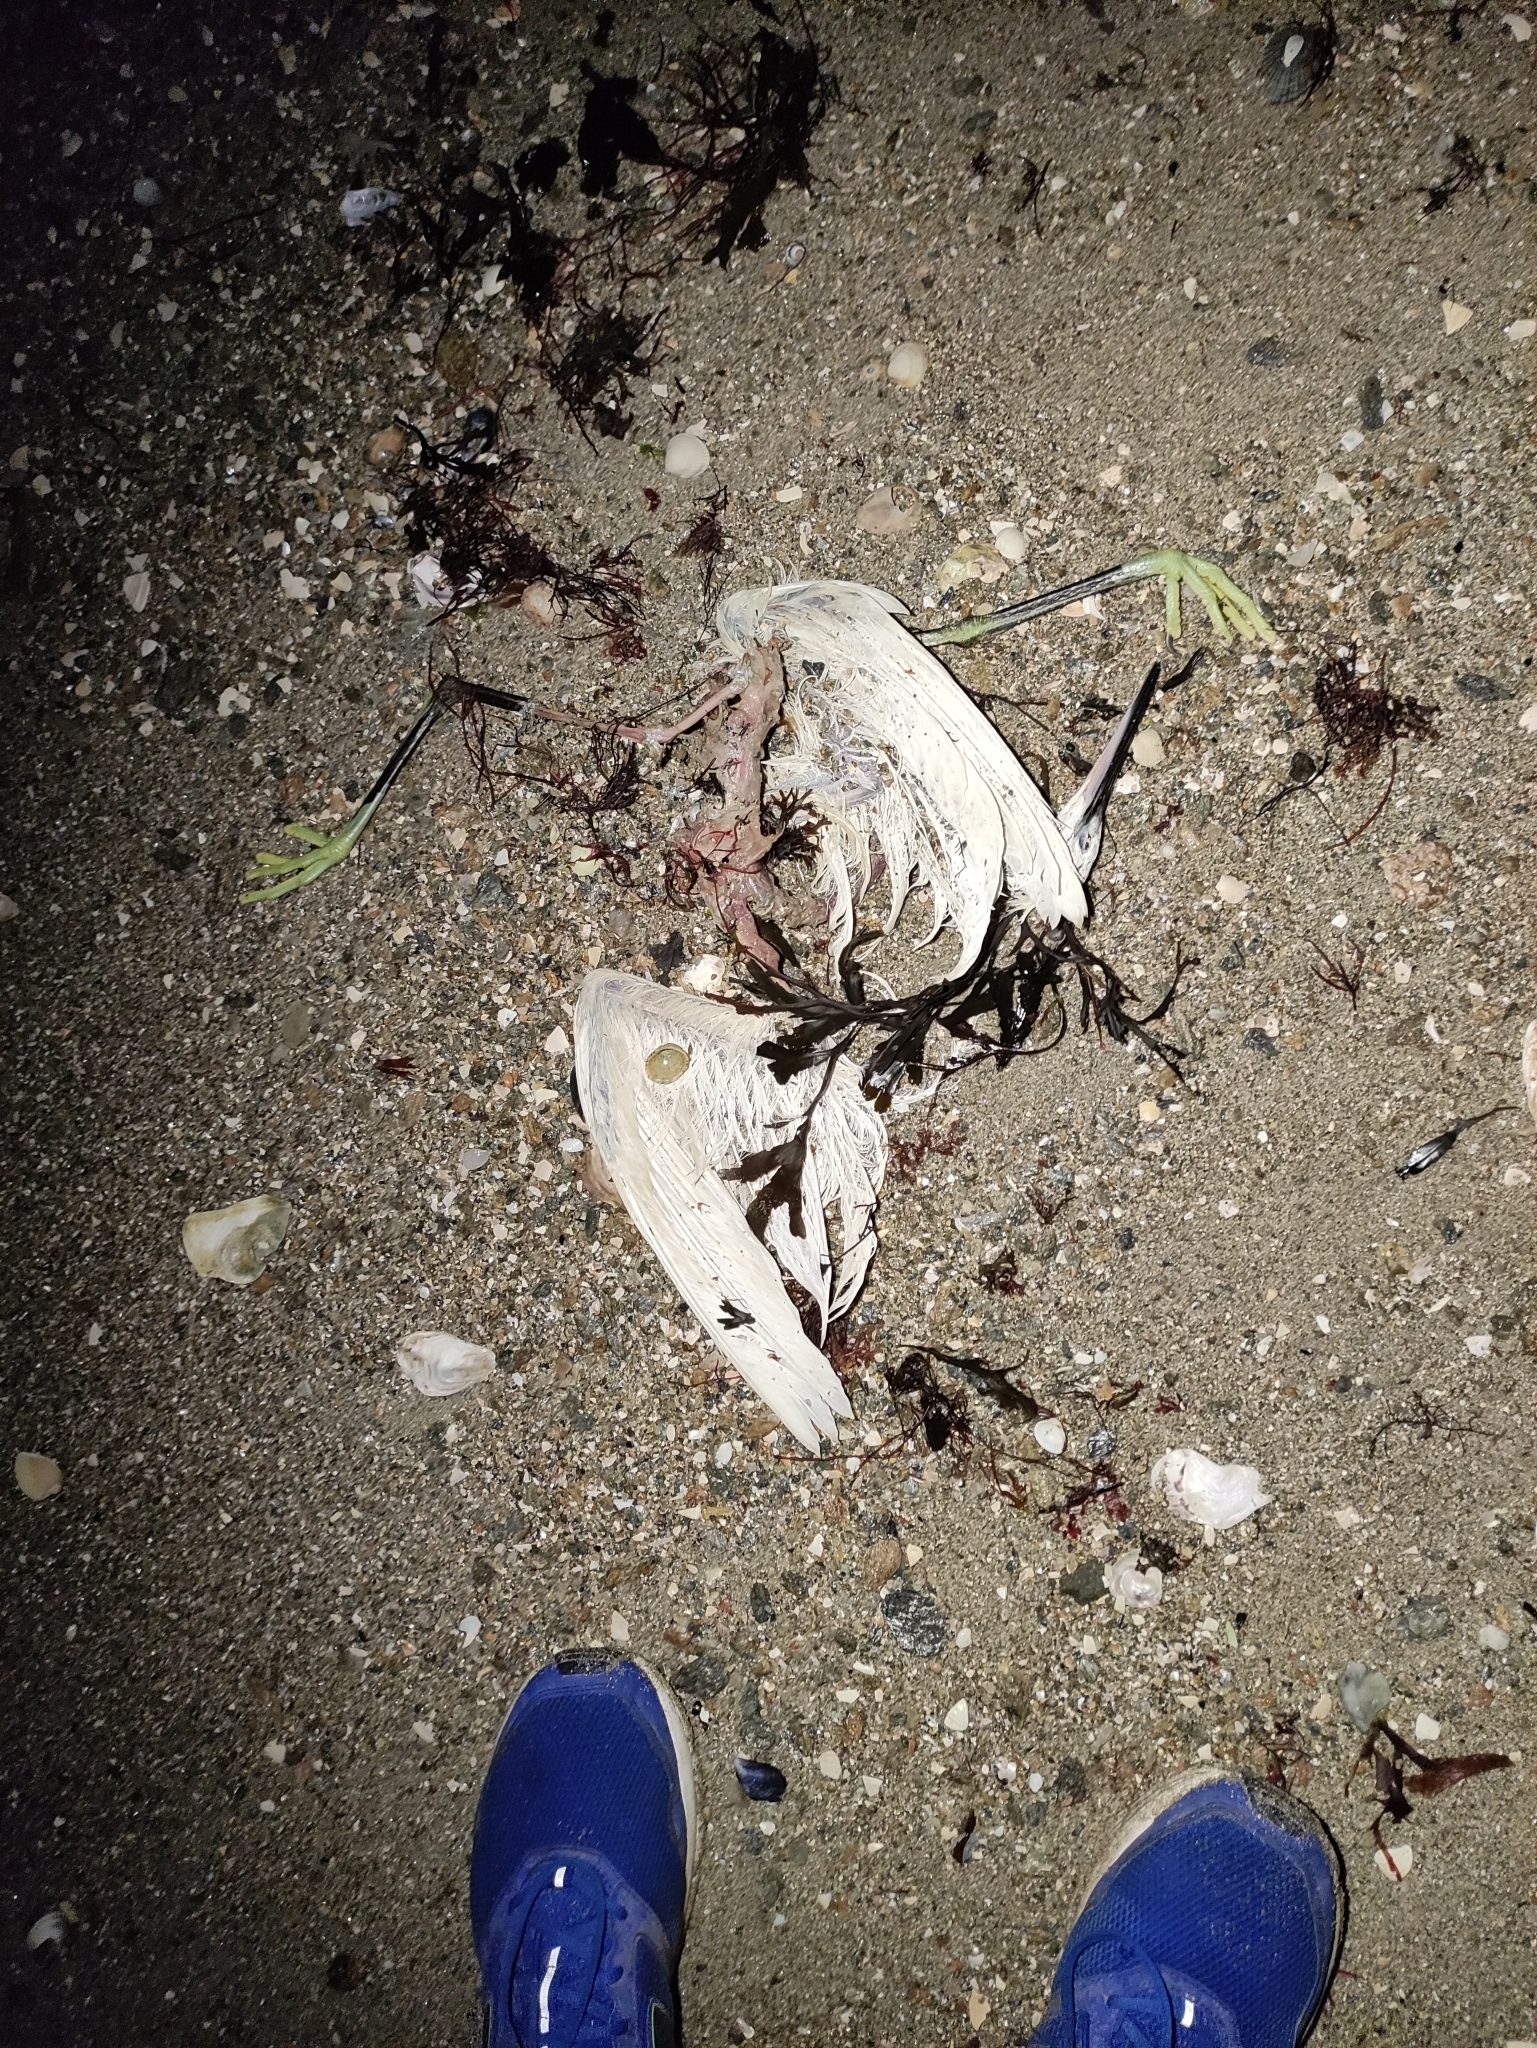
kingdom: Animalia
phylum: Chordata
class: Aves
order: Pelecaniformes
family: Ardeidae
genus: Egretta
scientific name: Egretta garzetta
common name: Little egret
